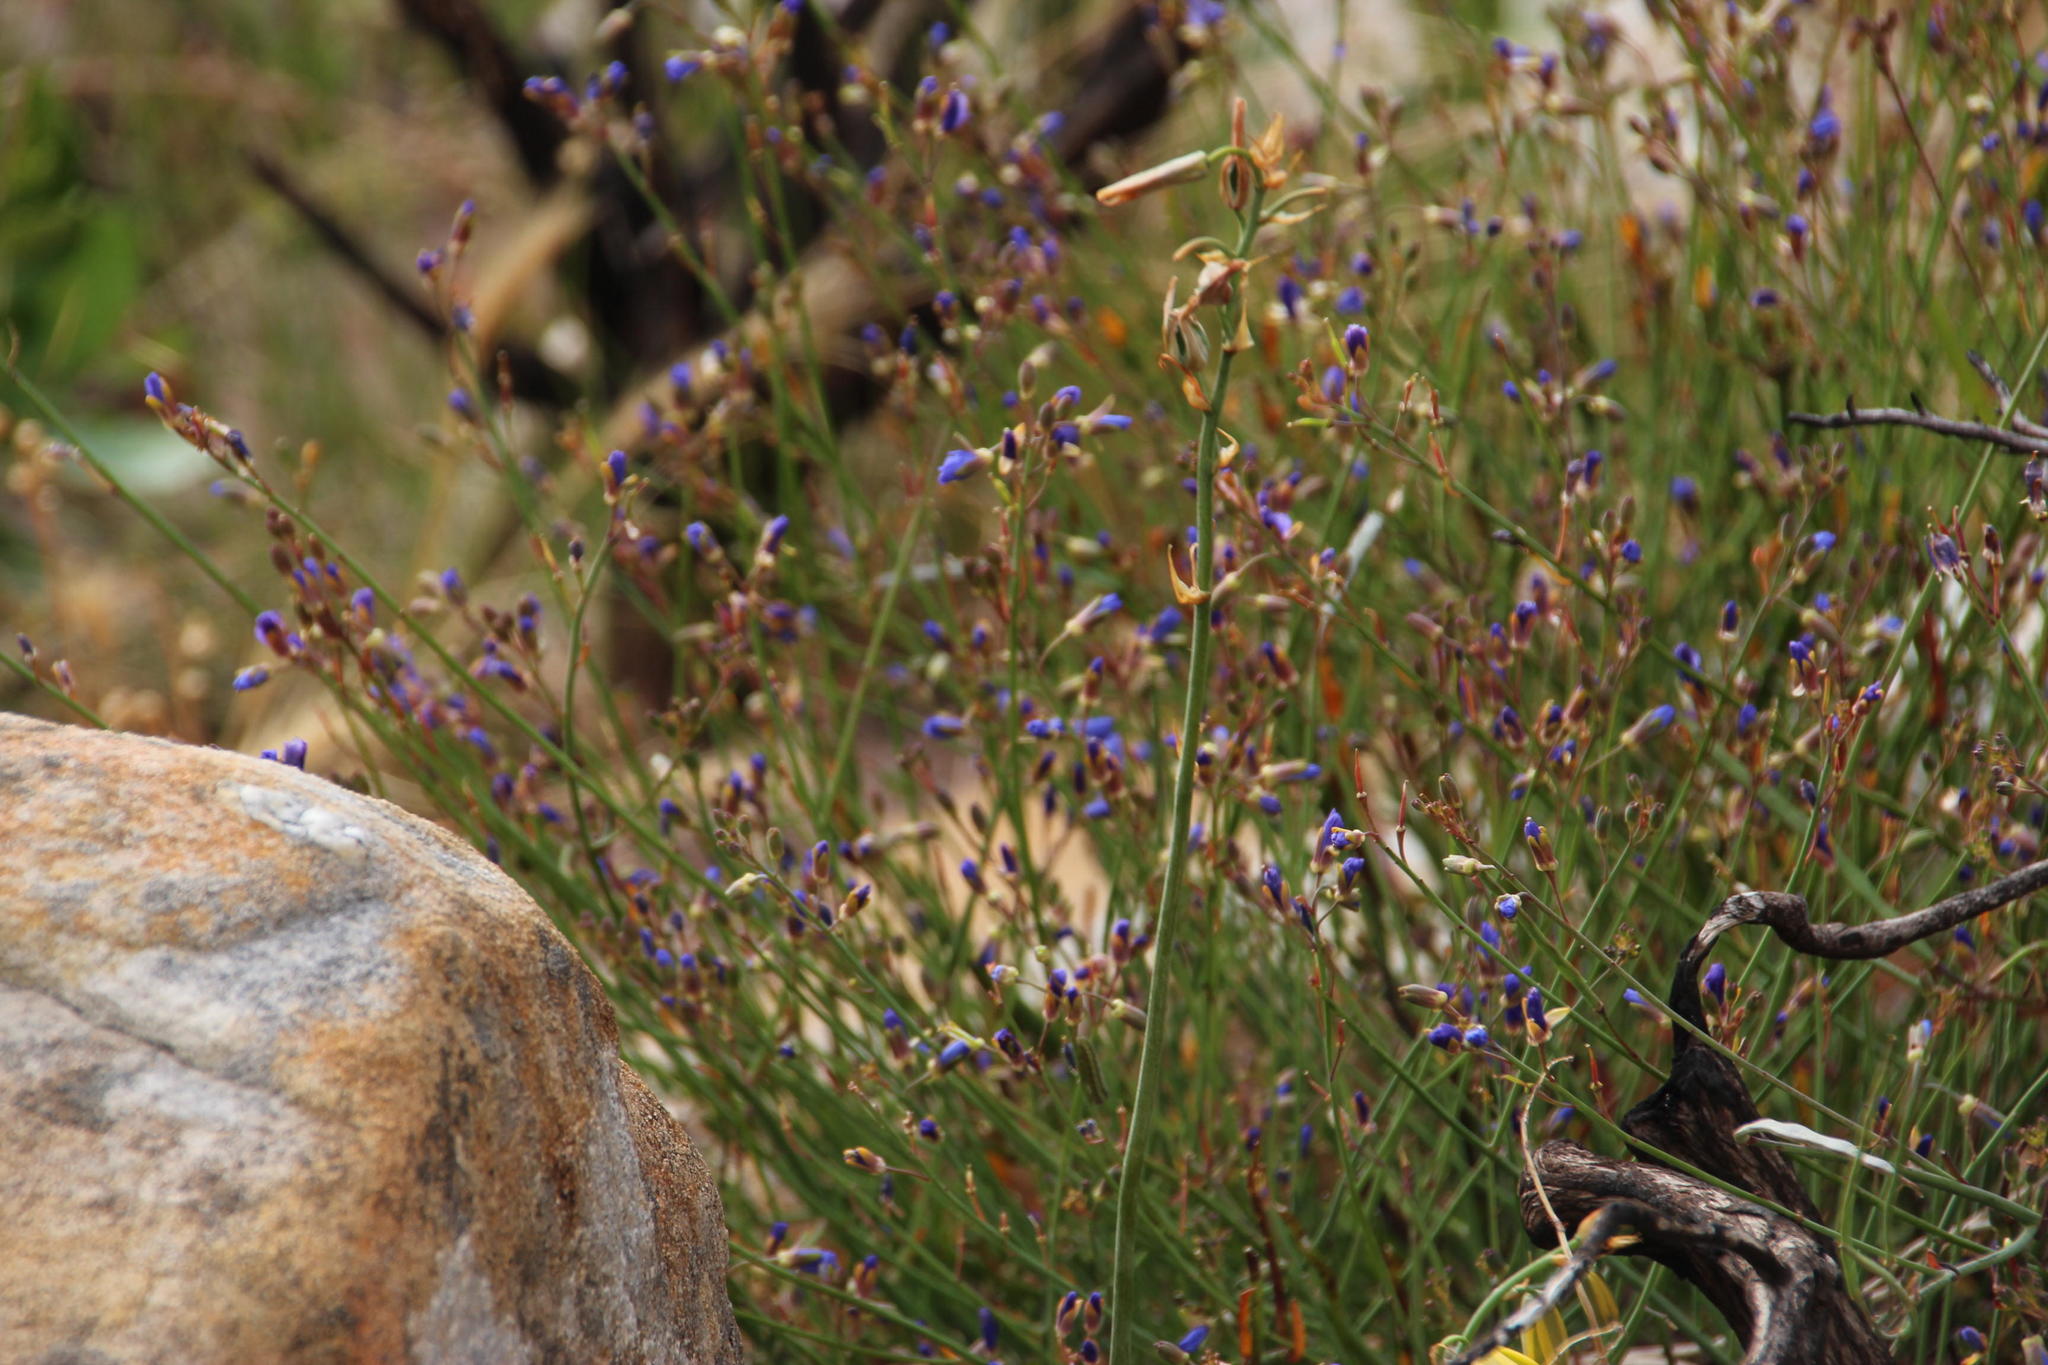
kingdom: Plantae
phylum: Tracheophyta
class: Magnoliopsida
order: Brassicales
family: Brassicaceae
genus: Heliophila
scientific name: Heliophila linearis
